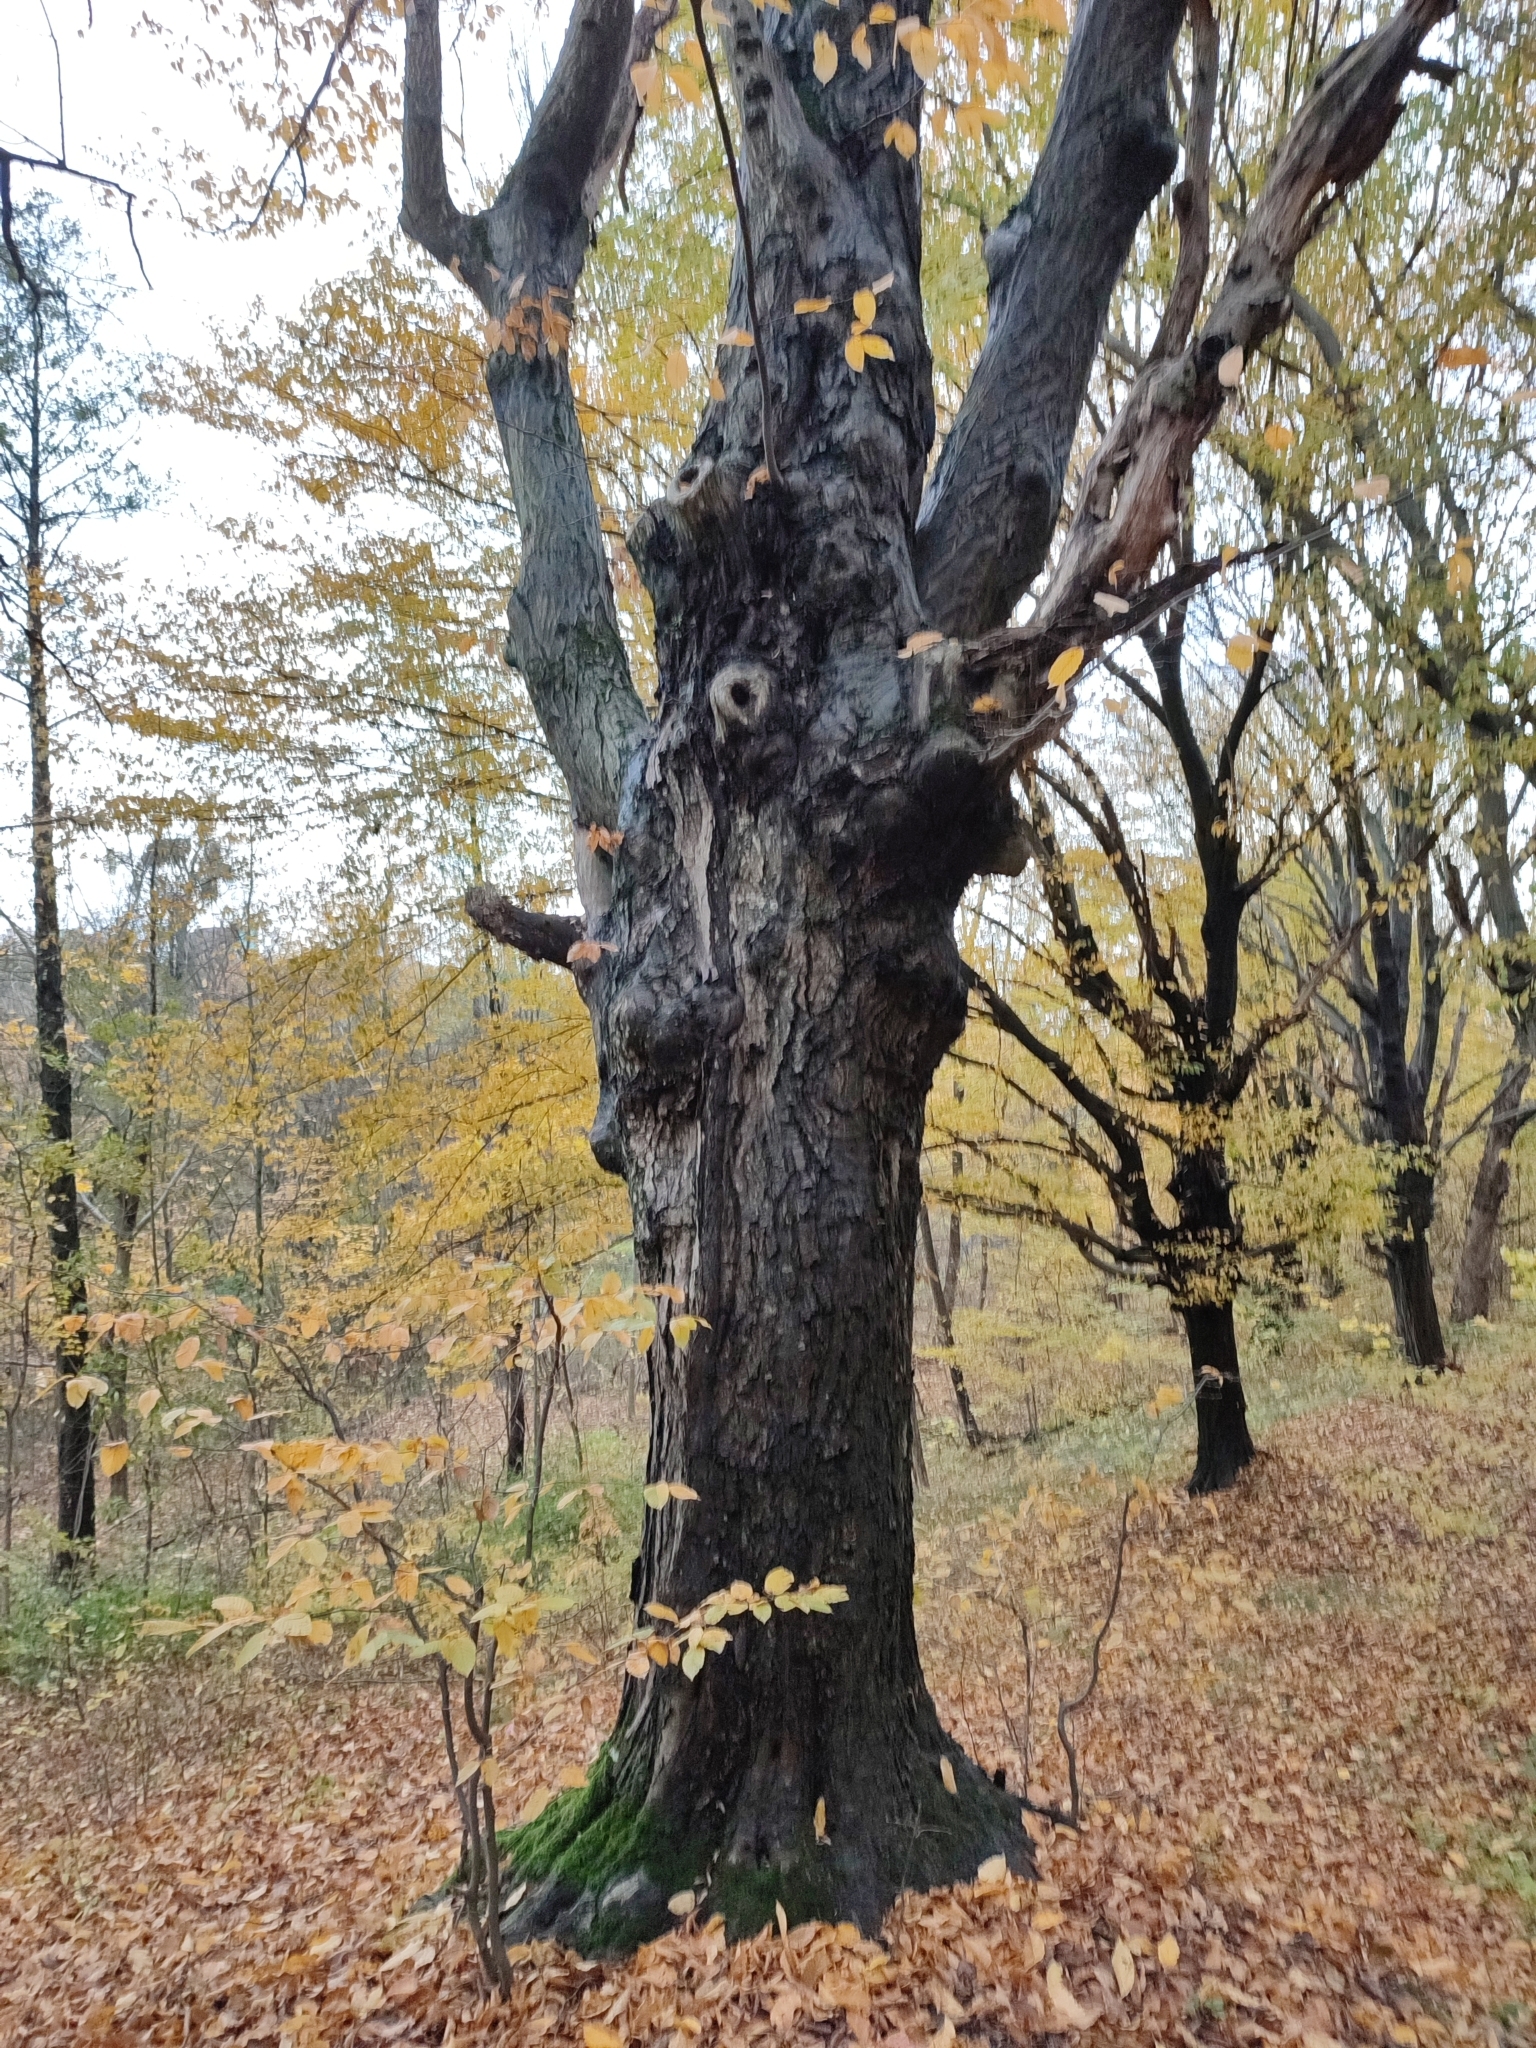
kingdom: Plantae
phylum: Tracheophyta
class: Magnoliopsida
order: Fagales
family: Betulaceae
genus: Carpinus
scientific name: Carpinus betulus
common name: Hornbeam
